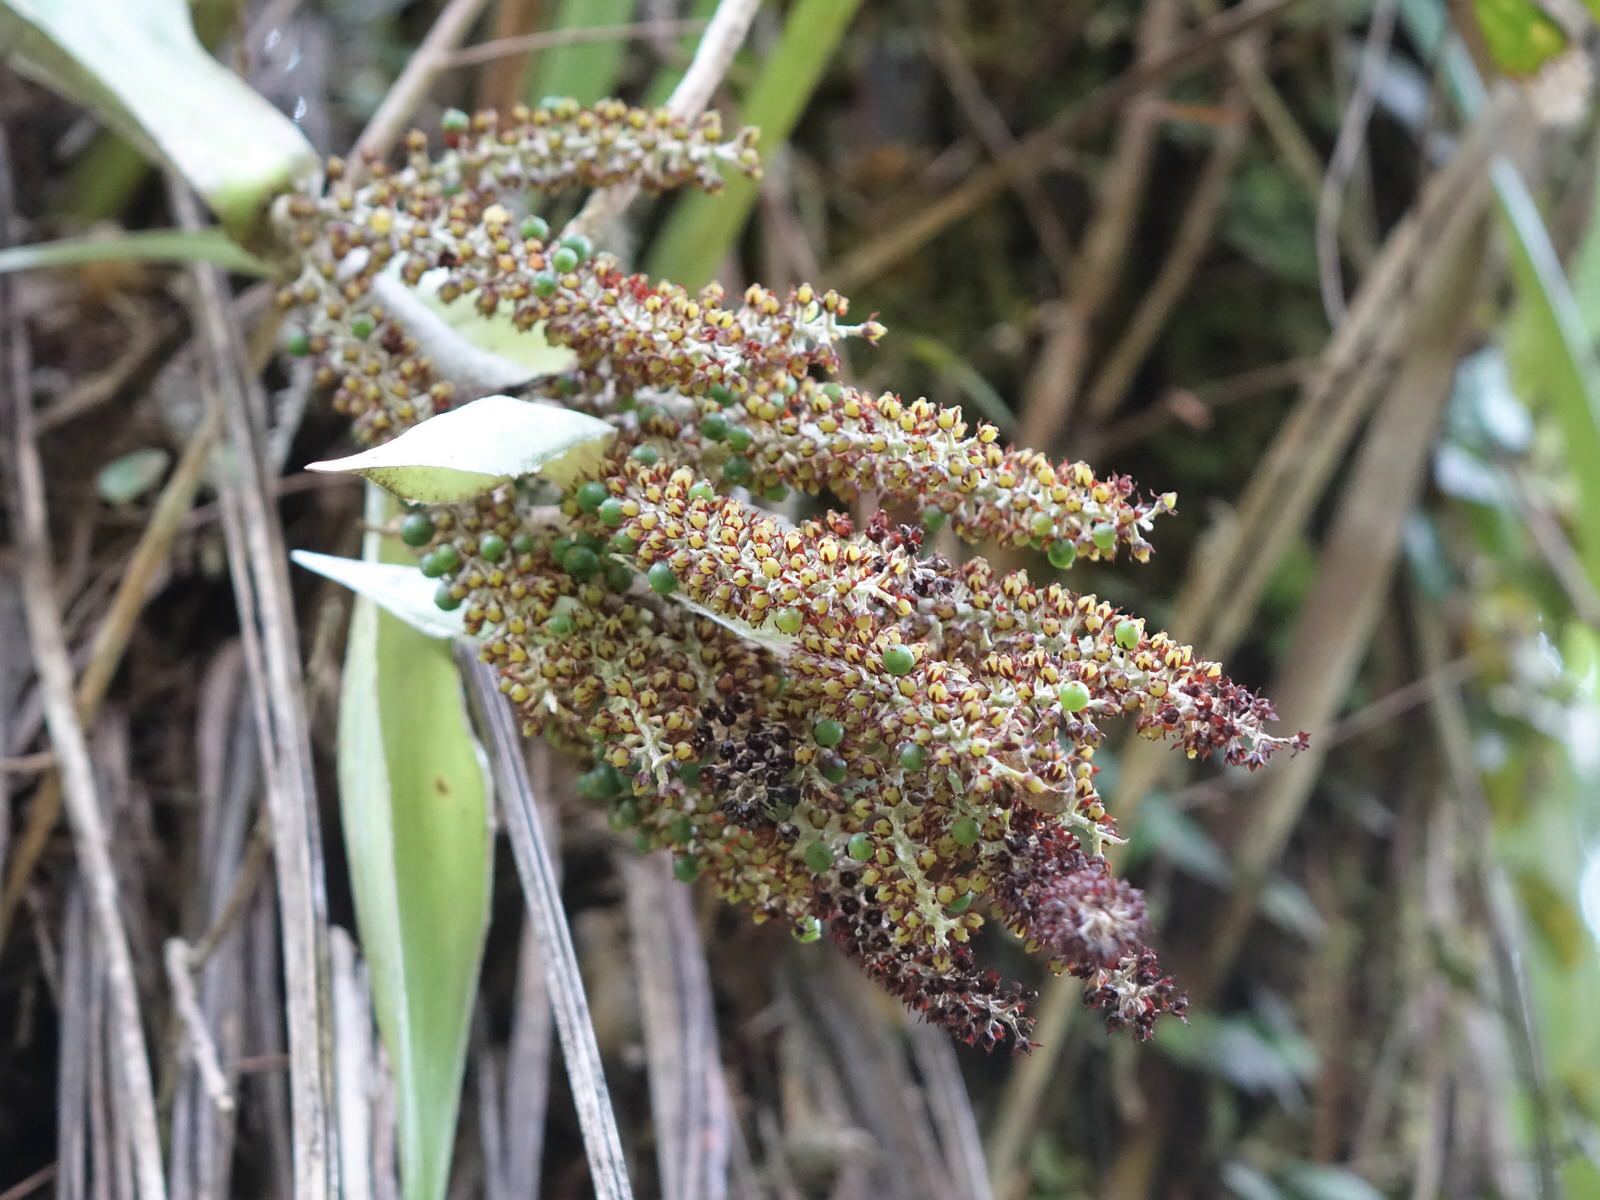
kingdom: Plantae
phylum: Tracheophyta
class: Liliopsida
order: Asparagales
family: Asteliaceae
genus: Astelia
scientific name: Astelia solandri
